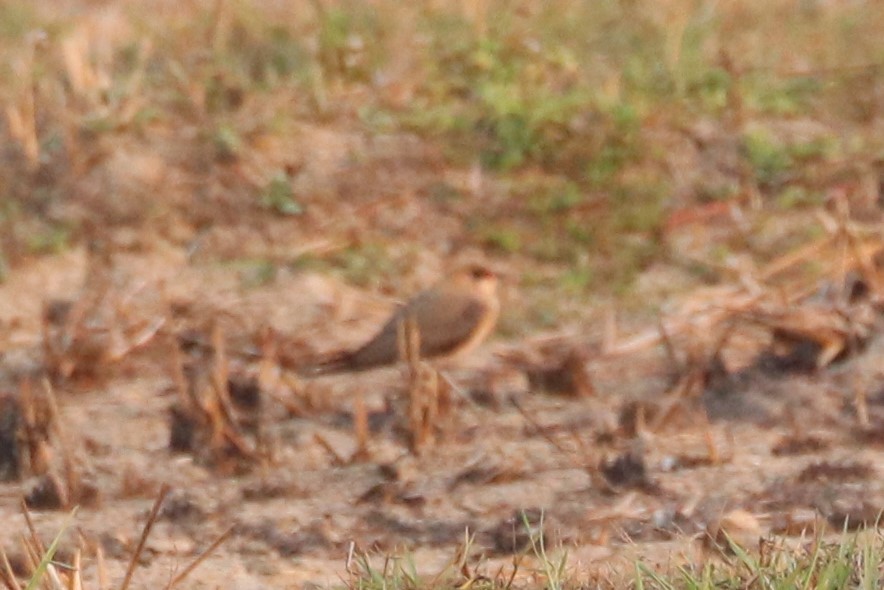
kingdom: Animalia
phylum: Chordata
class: Aves
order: Charadriiformes
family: Glareolidae
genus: Glareola
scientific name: Glareola maldivarum
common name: Oriental pratincole
